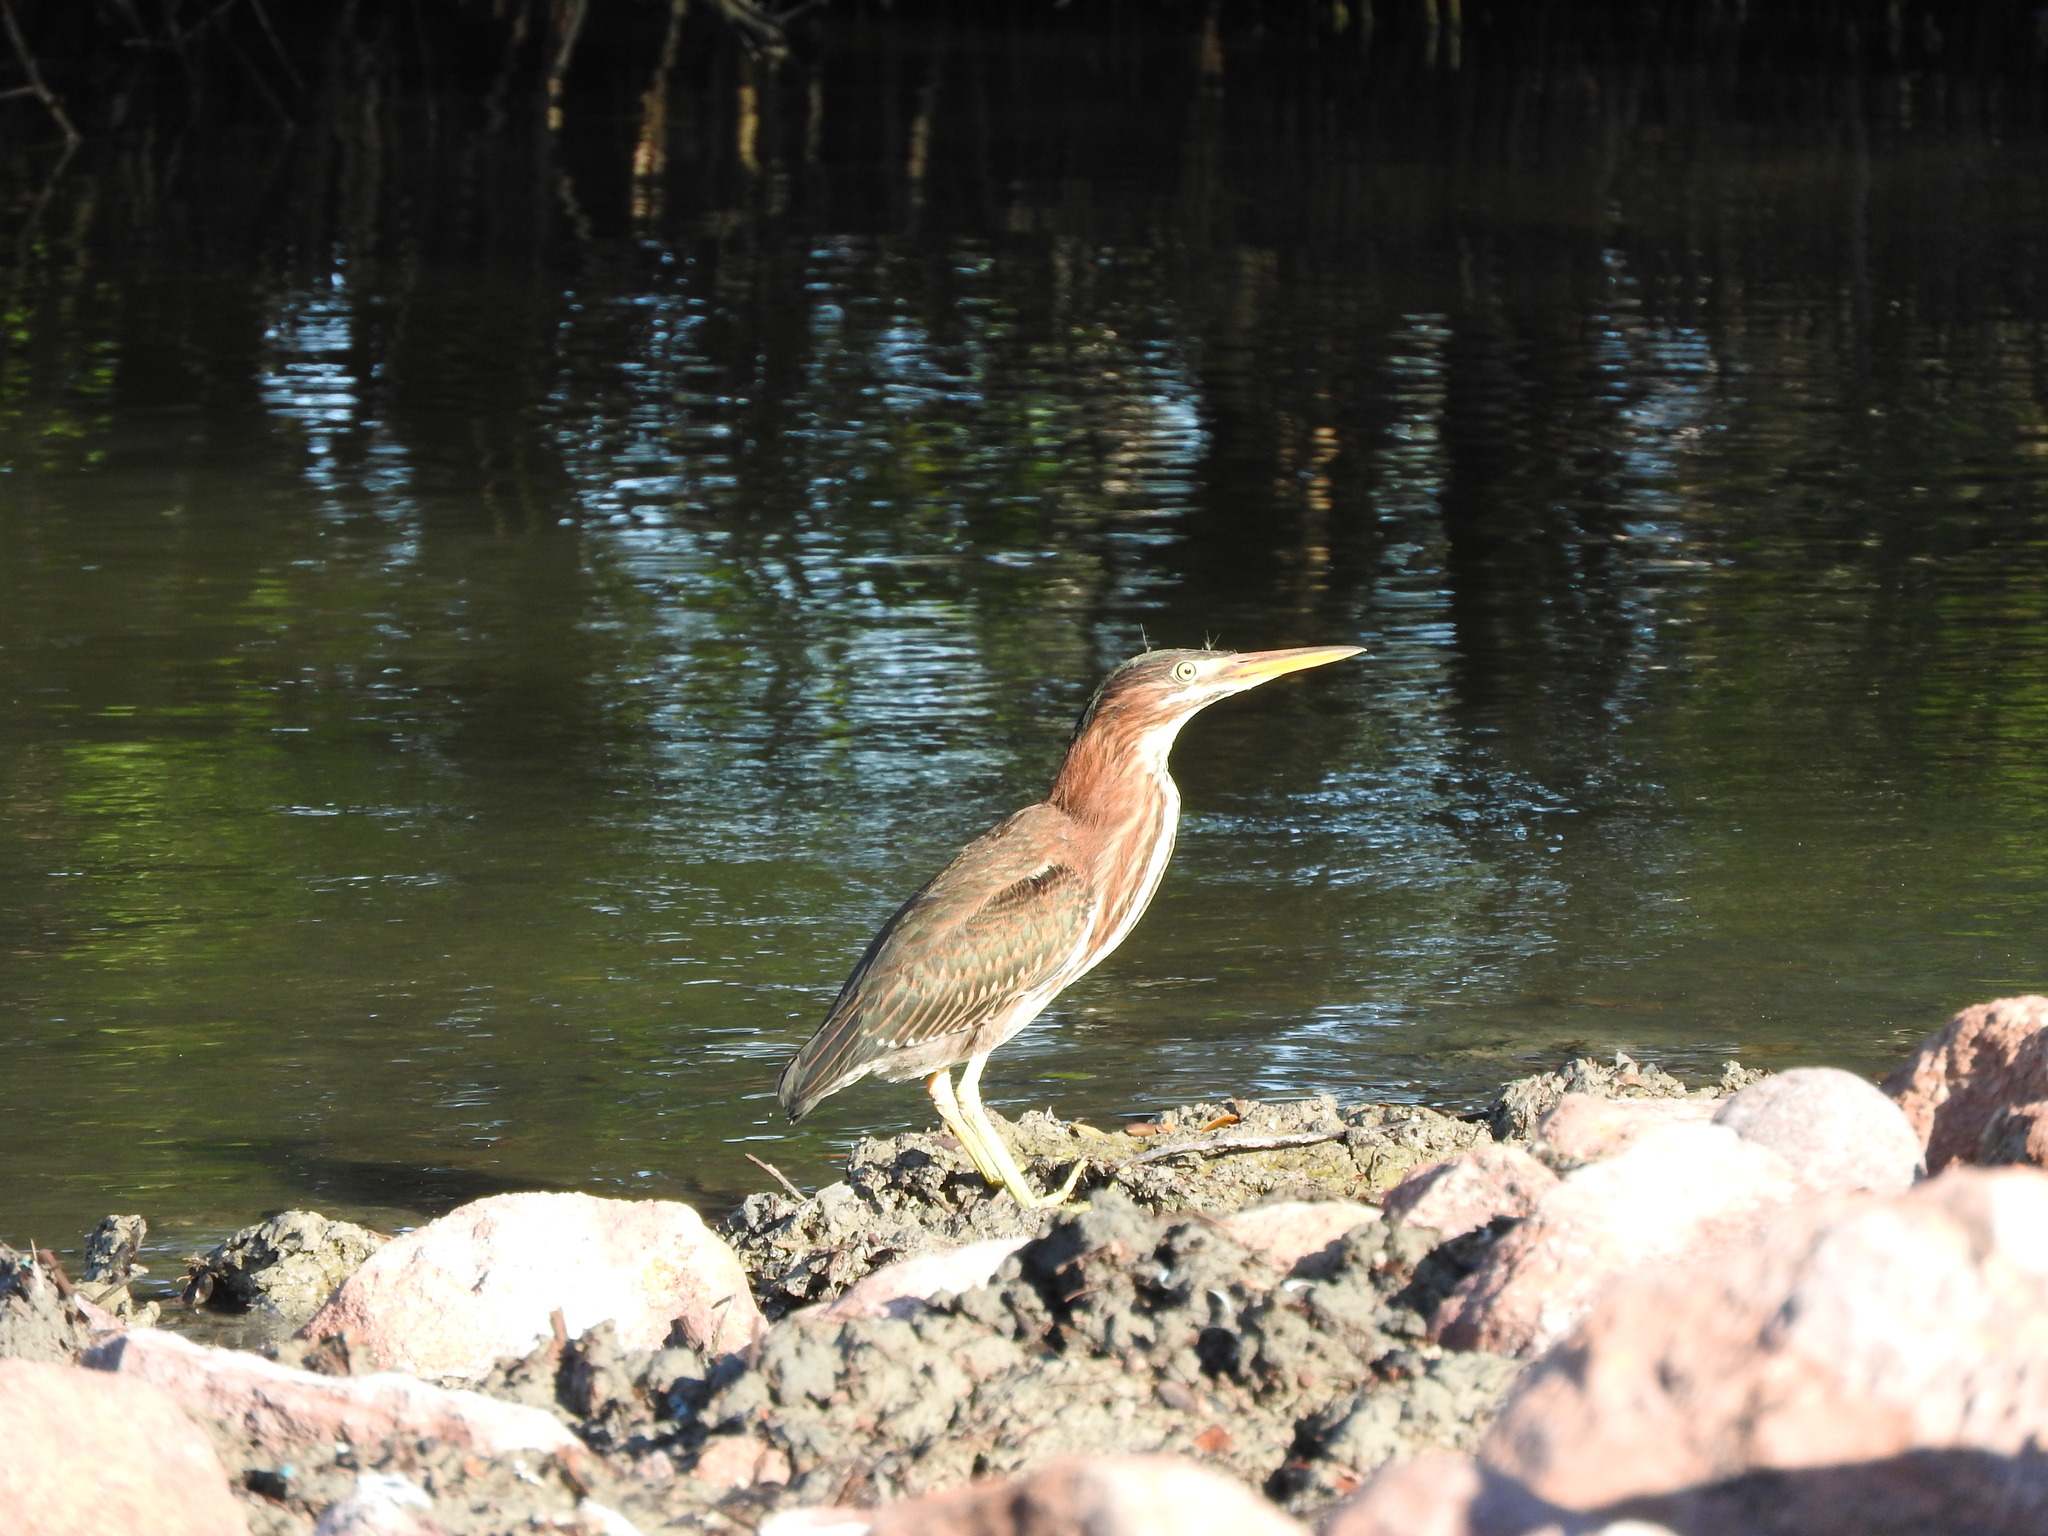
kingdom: Animalia
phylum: Chordata
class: Aves
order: Pelecaniformes
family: Ardeidae
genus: Butorides
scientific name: Butorides virescens
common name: Green heron
